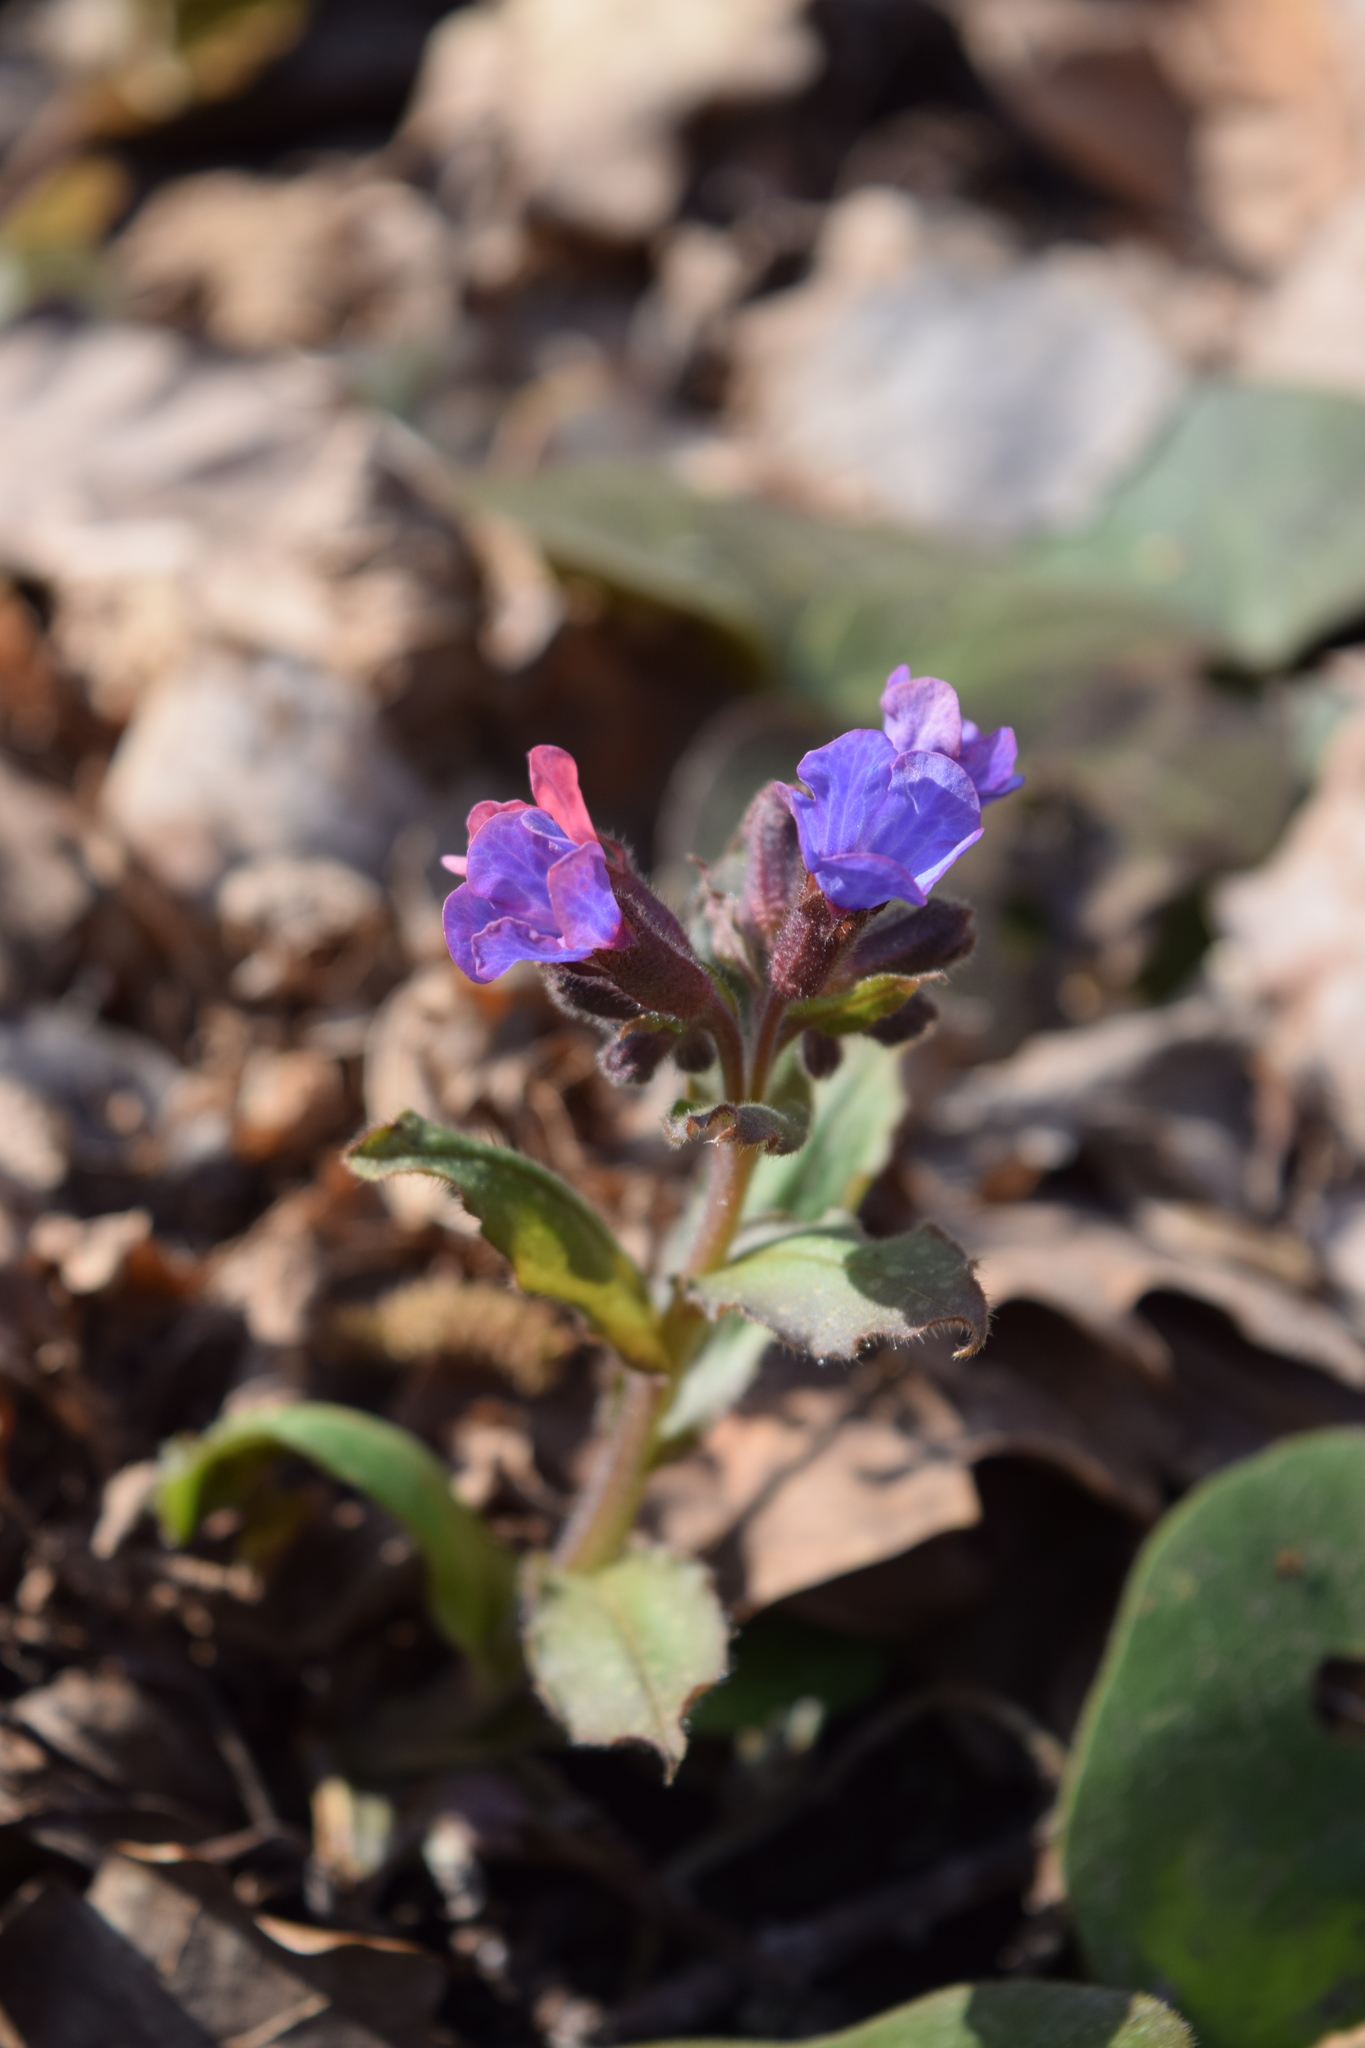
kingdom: Plantae
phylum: Tracheophyta
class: Magnoliopsida
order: Boraginales
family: Boraginaceae
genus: Pulmonaria
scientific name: Pulmonaria obscura
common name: Suffolk lungwort
